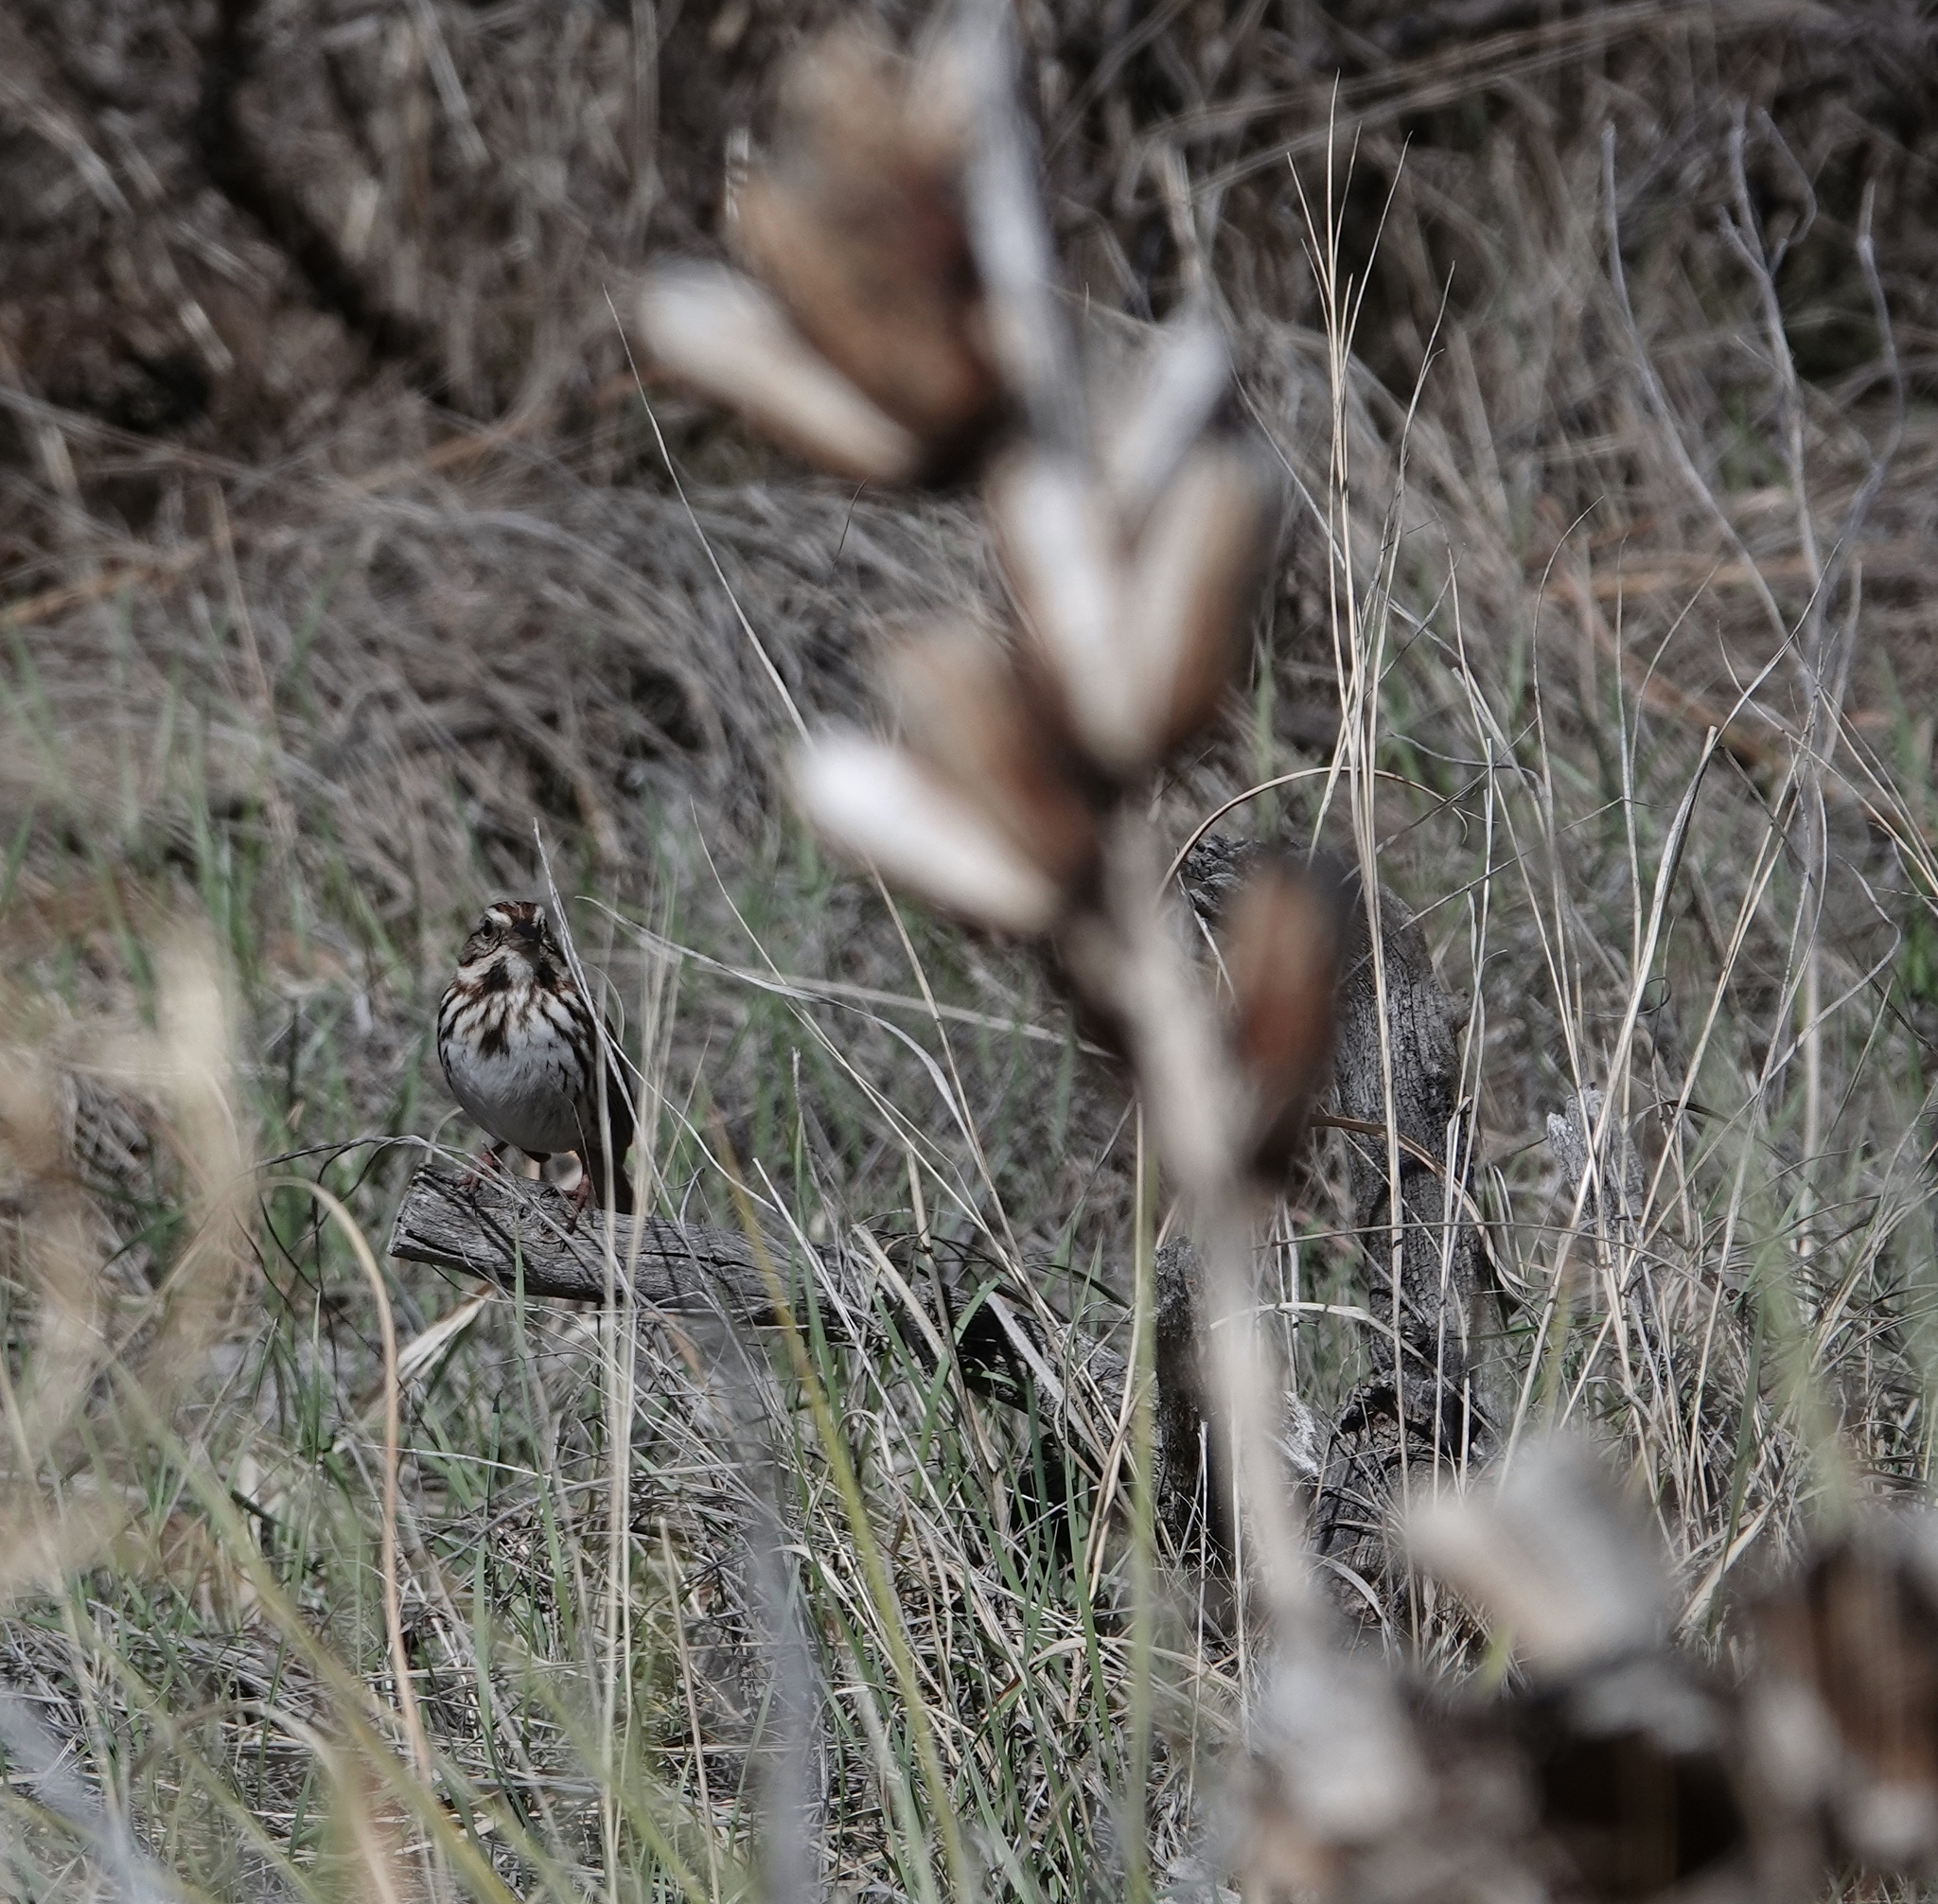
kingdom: Animalia
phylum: Chordata
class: Aves
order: Passeriformes
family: Passerellidae
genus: Melospiza
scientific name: Melospiza melodia
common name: Song sparrow
